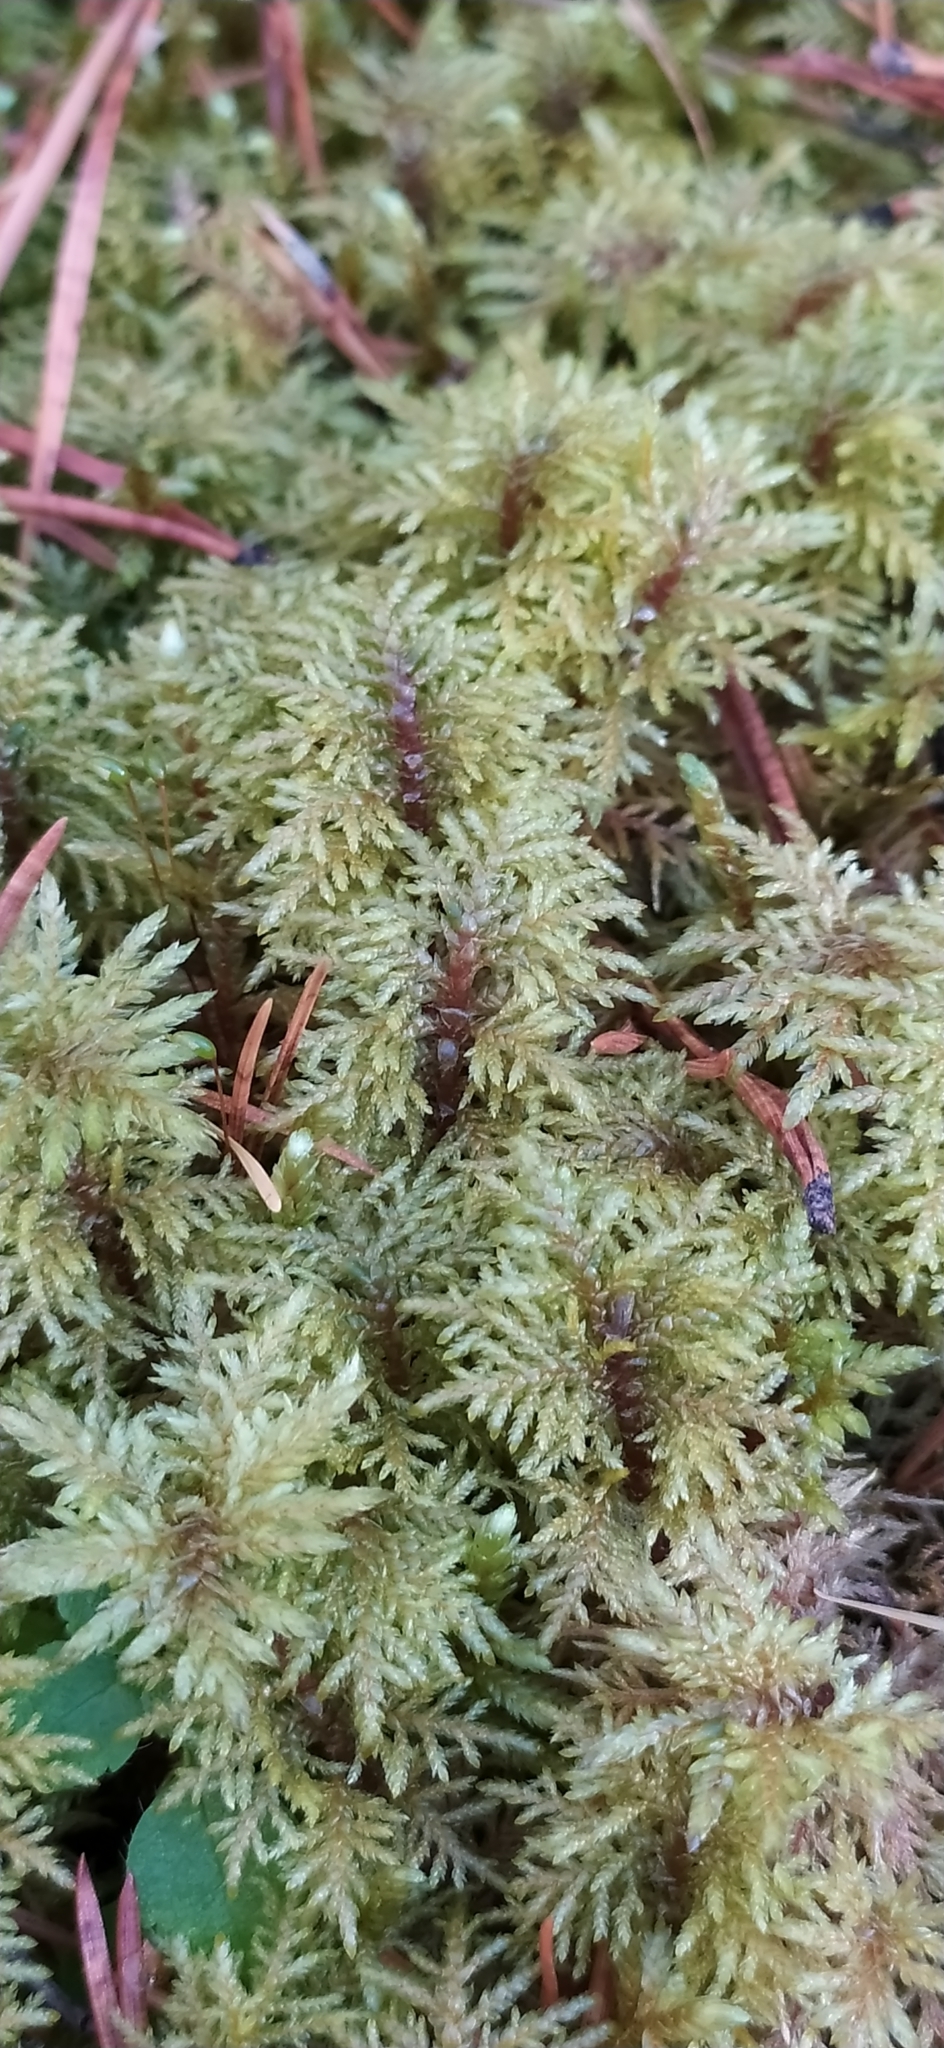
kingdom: Plantae
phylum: Bryophyta
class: Bryopsida
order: Hypnales
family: Hylocomiaceae
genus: Hylocomium
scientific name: Hylocomium splendens
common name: Stairstep moss
